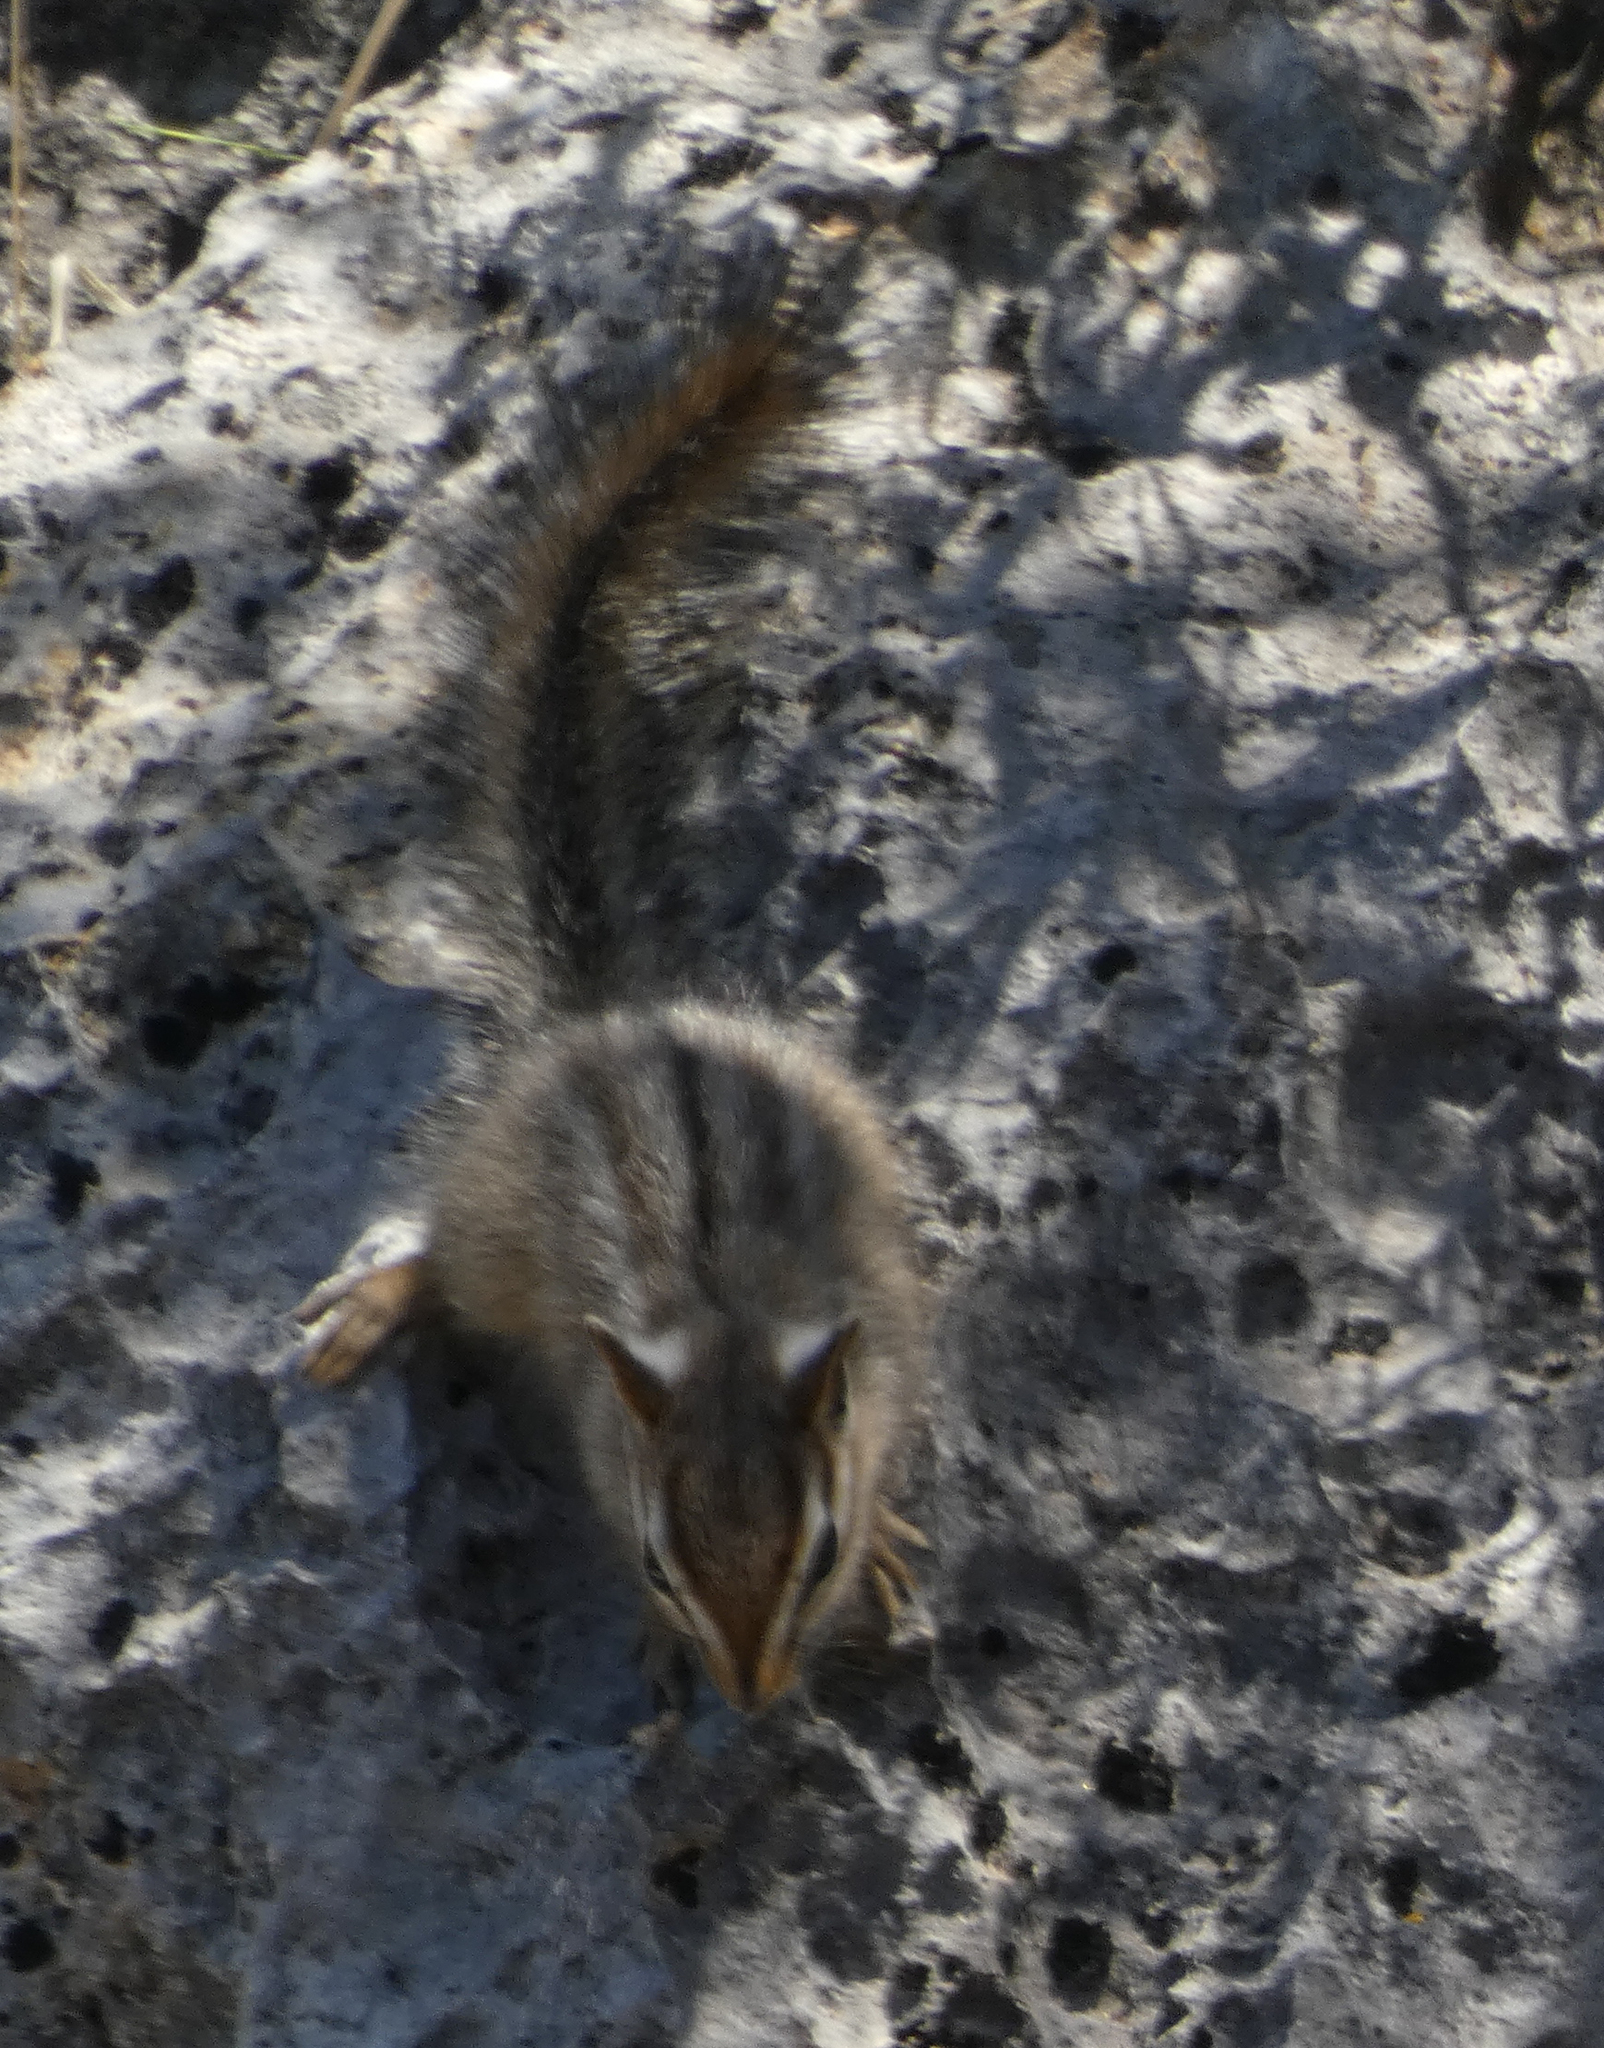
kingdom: Animalia
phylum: Chordata
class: Mammalia
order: Rodentia
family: Sciuridae
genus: Tamias
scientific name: Tamias dorsalis
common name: Cliff chipmunk
